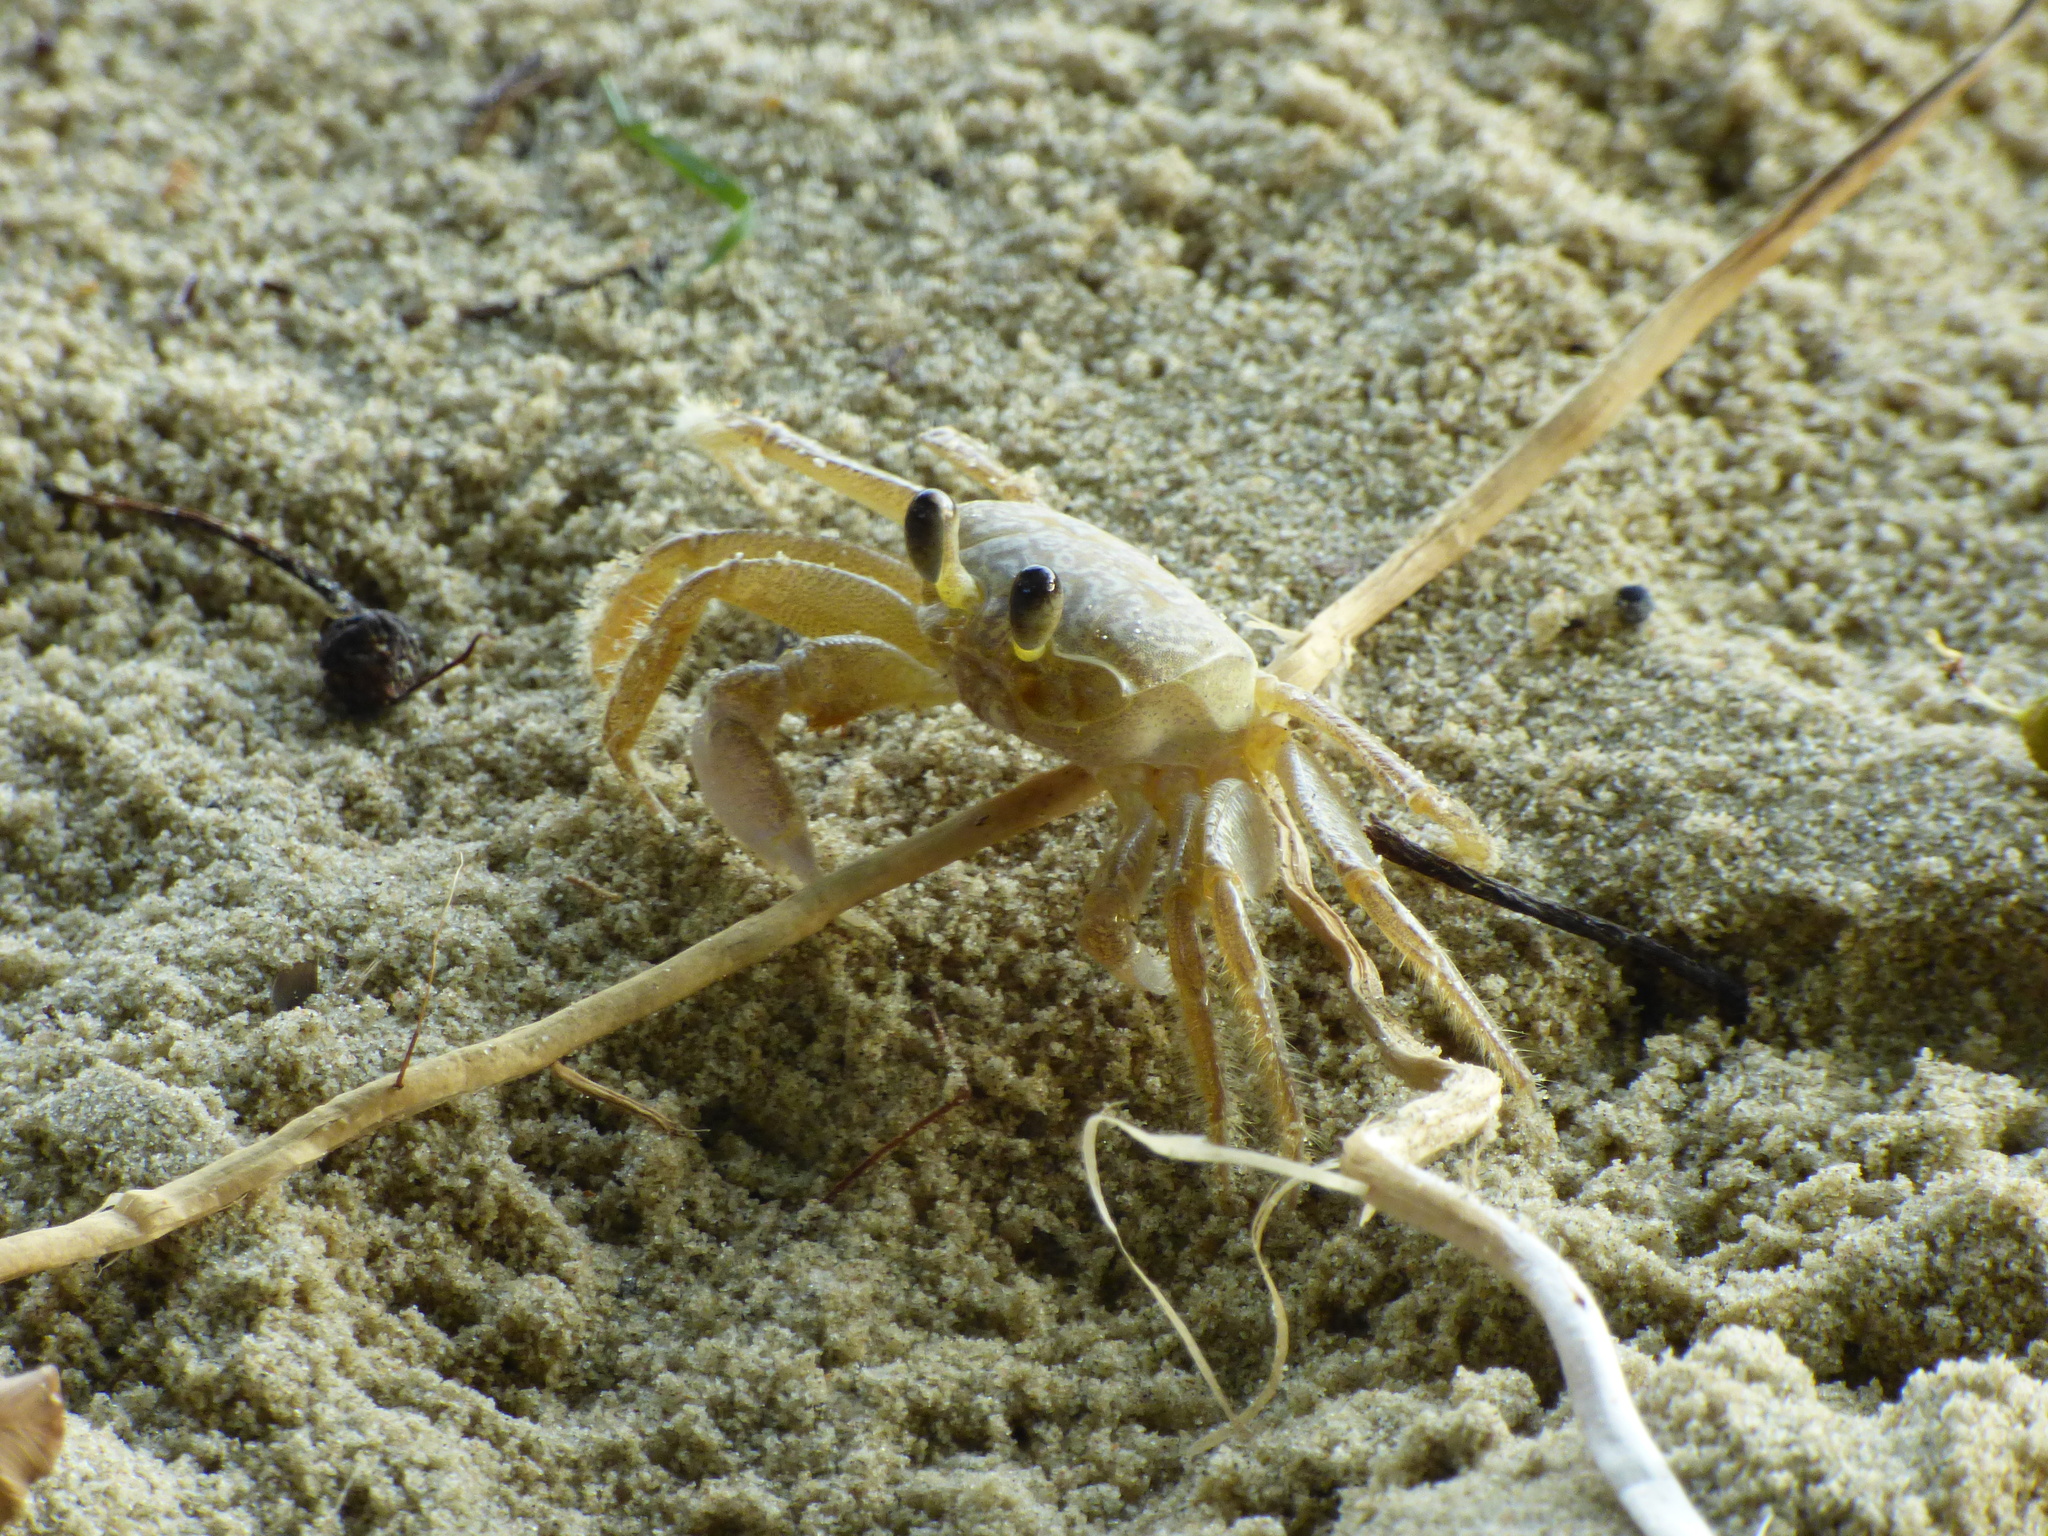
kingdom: Animalia
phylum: Arthropoda
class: Malacostraca
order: Decapoda
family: Ocypodidae
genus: Ocypode
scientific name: Ocypode quadrata
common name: Ghost crab
